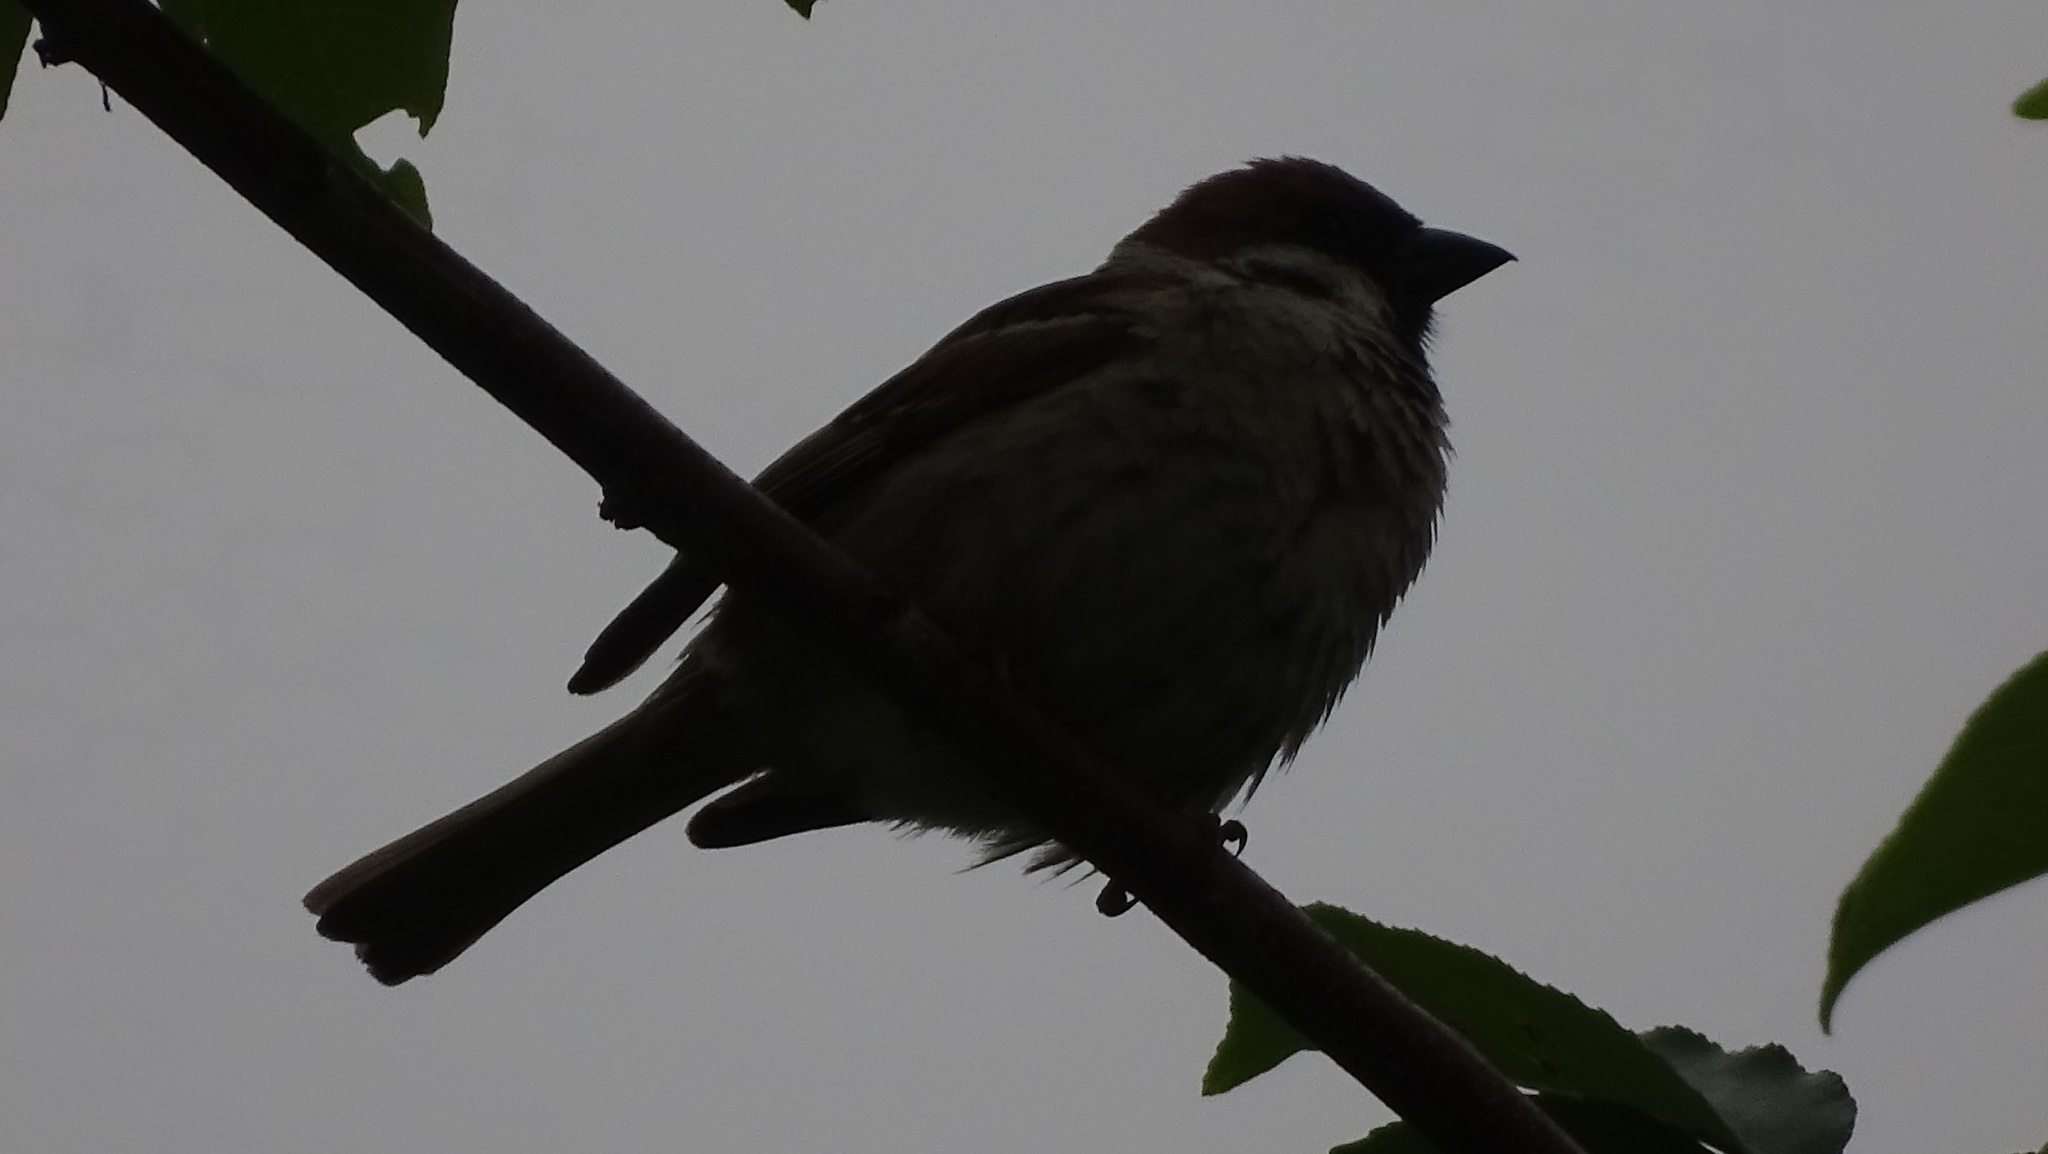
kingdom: Animalia
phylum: Chordata
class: Aves
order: Passeriformes
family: Passeridae
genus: Passer
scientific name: Passer montanus
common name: Eurasian tree sparrow
